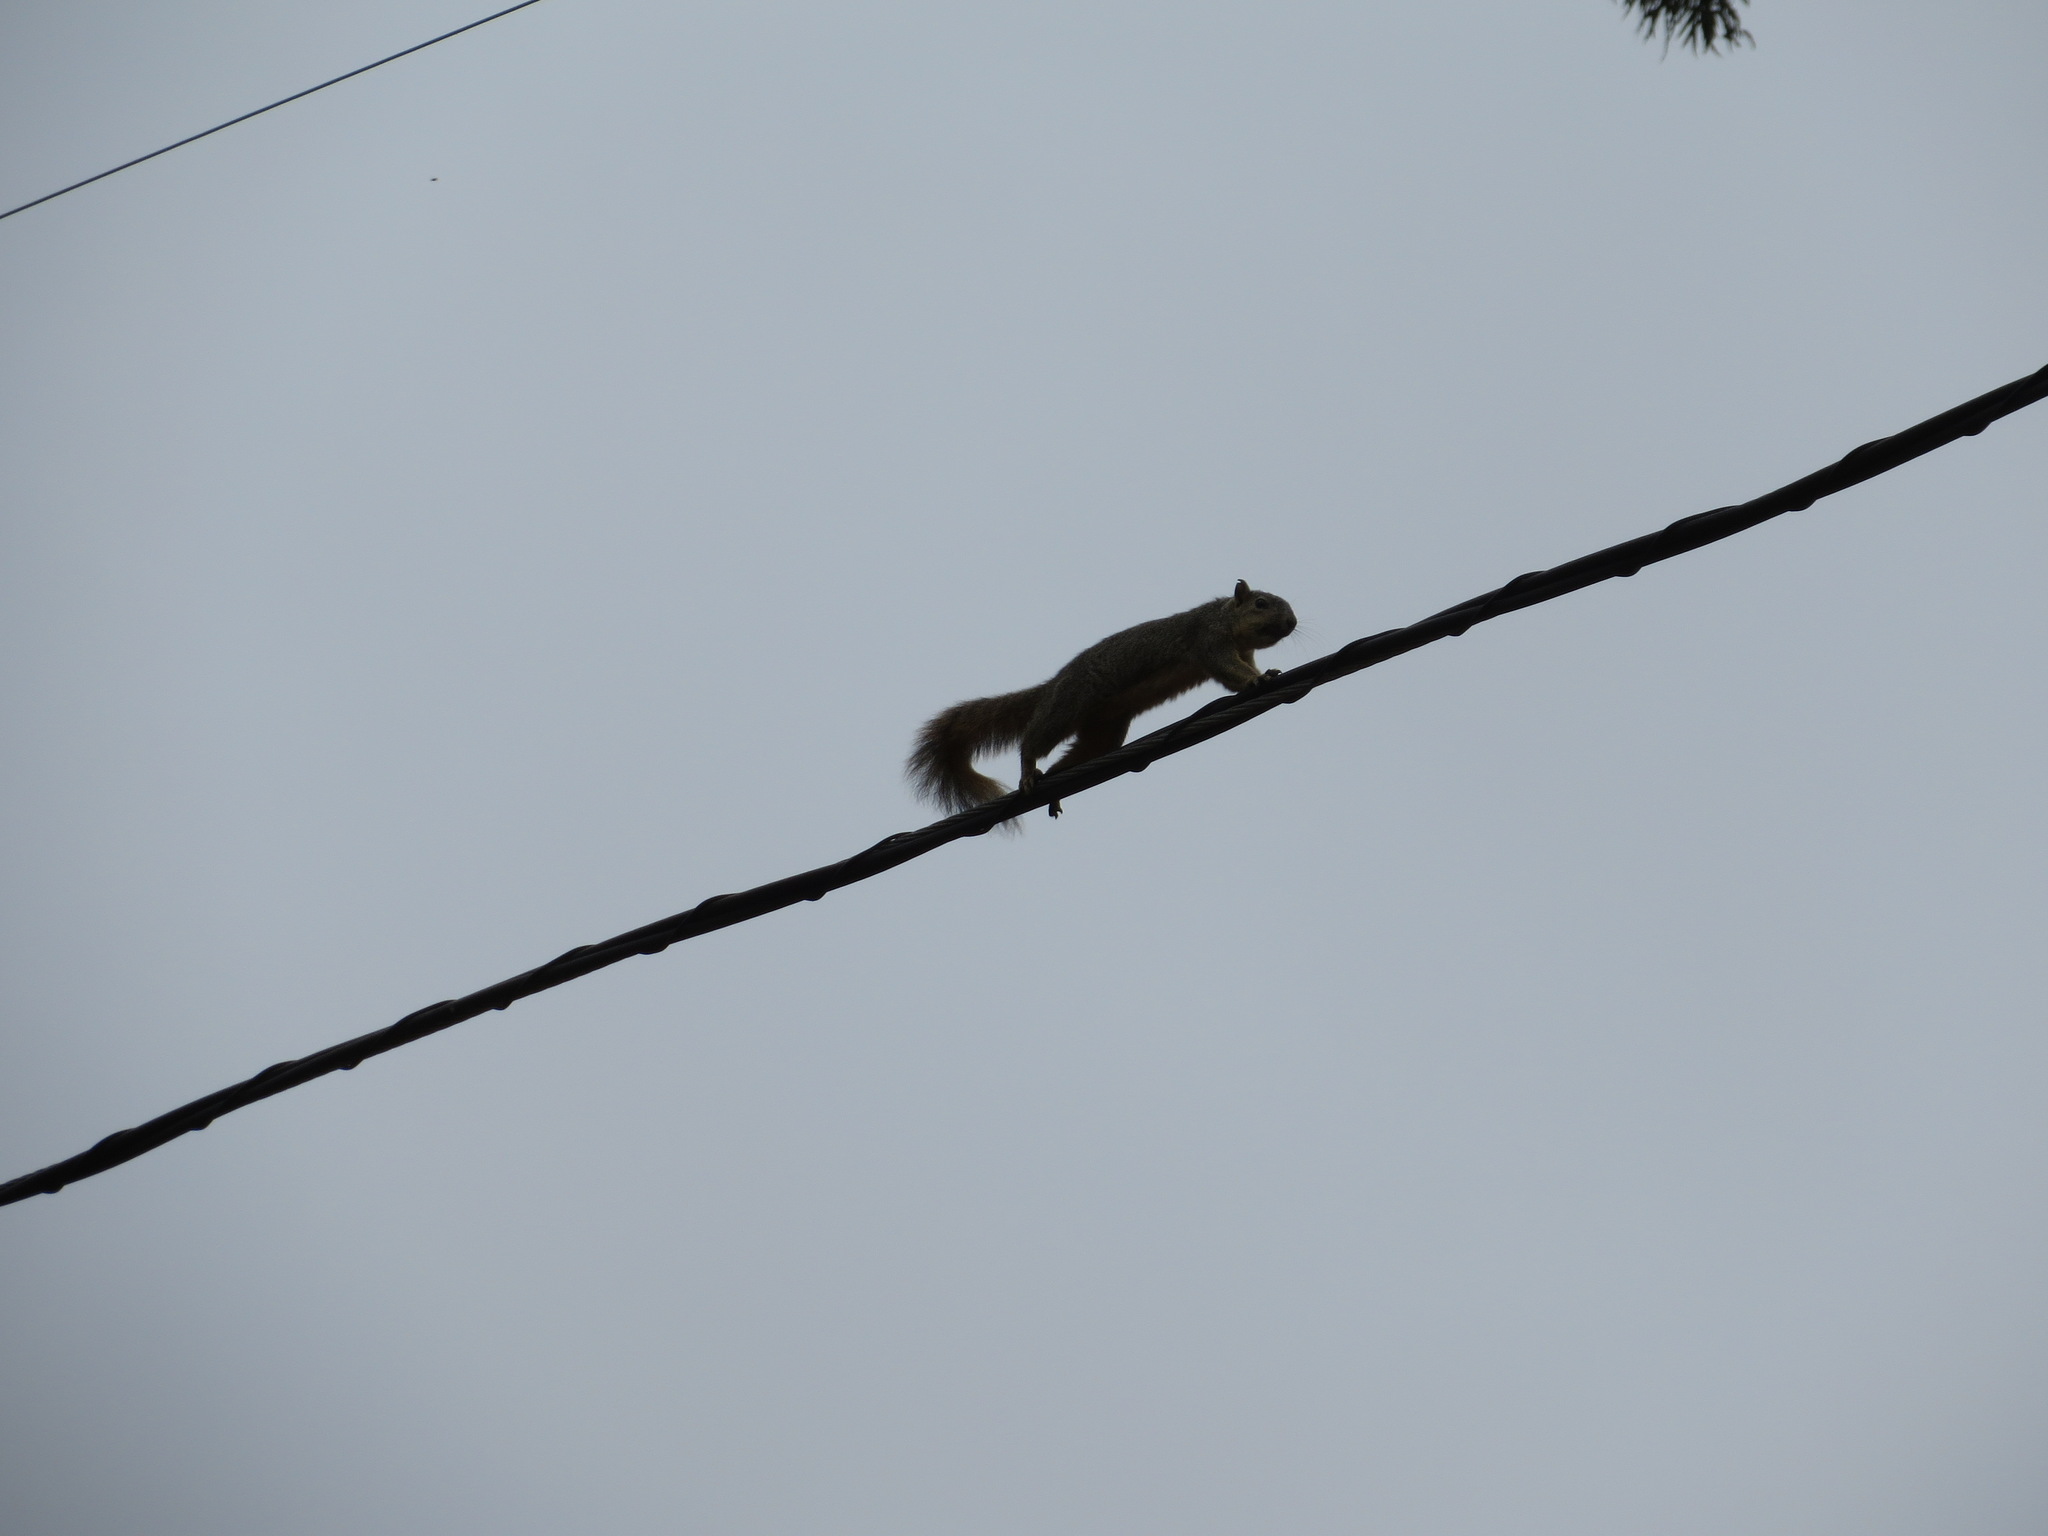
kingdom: Animalia
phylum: Chordata
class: Mammalia
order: Rodentia
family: Sciuridae
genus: Sciurus
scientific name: Sciurus niger
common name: Fox squirrel
